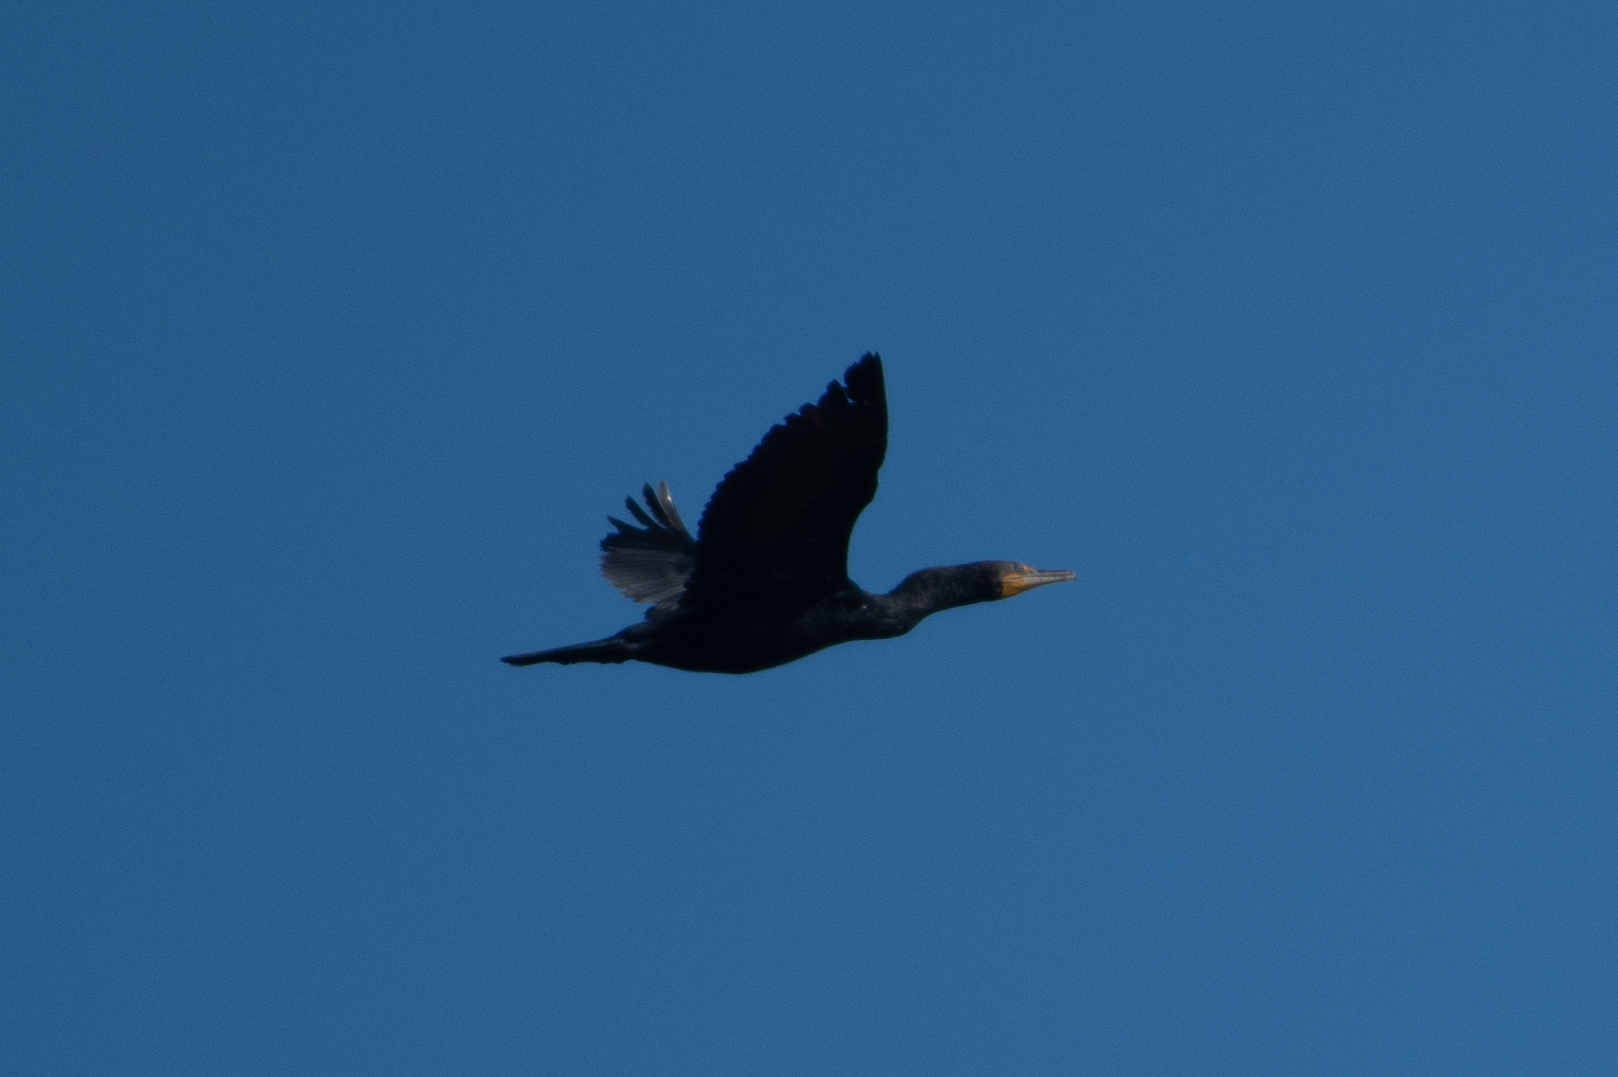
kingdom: Animalia
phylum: Chordata
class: Aves
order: Suliformes
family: Phalacrocoracidae
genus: Phalacrocorax
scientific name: Phalacrocorax auritus
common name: Double-crested cormorant
